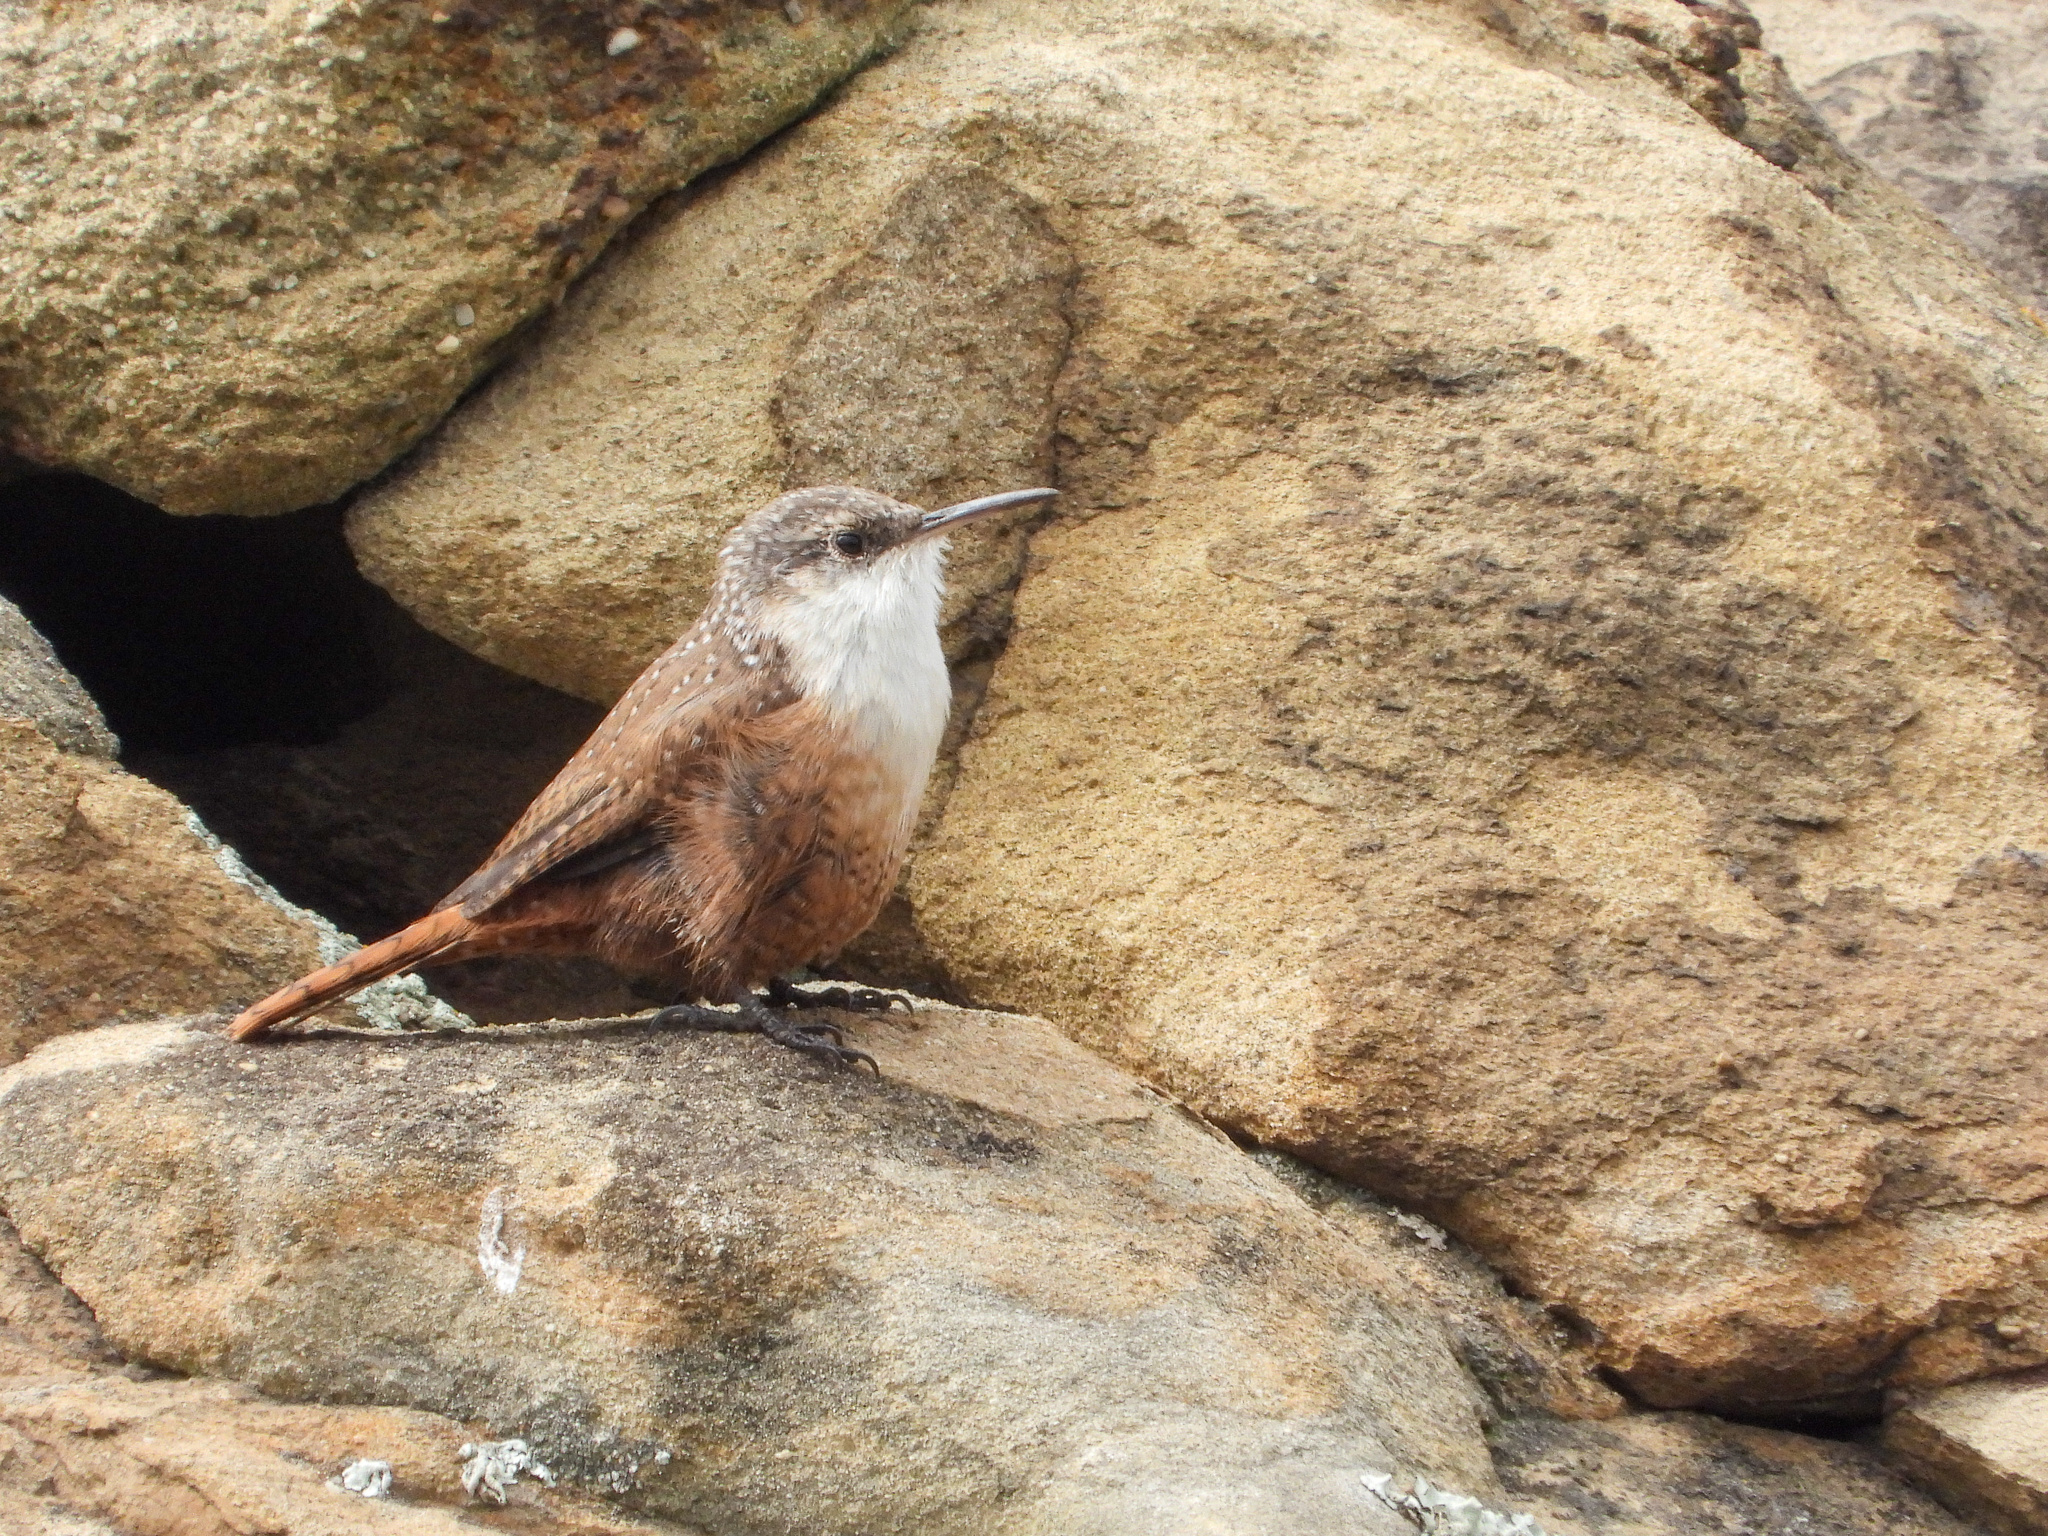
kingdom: Animalia
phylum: Chordata
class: Aves
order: Passeriformes
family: Troglodytidae
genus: Catherpes
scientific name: Catherpes mexicanus
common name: Canyon wren
